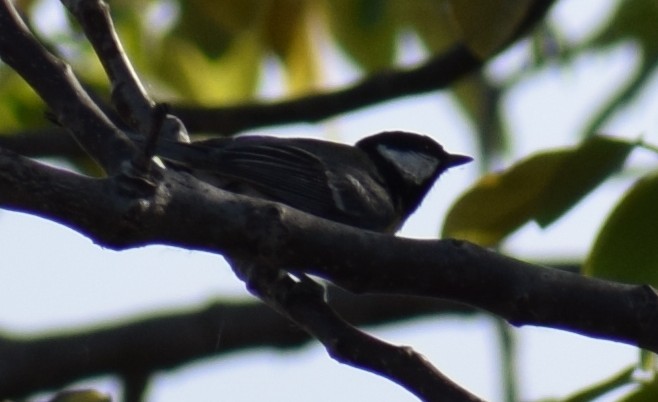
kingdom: Animalia
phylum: Chordata
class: Aves
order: Passeriformes
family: Paridae
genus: Parus
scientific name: Parus major
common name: Great tit
